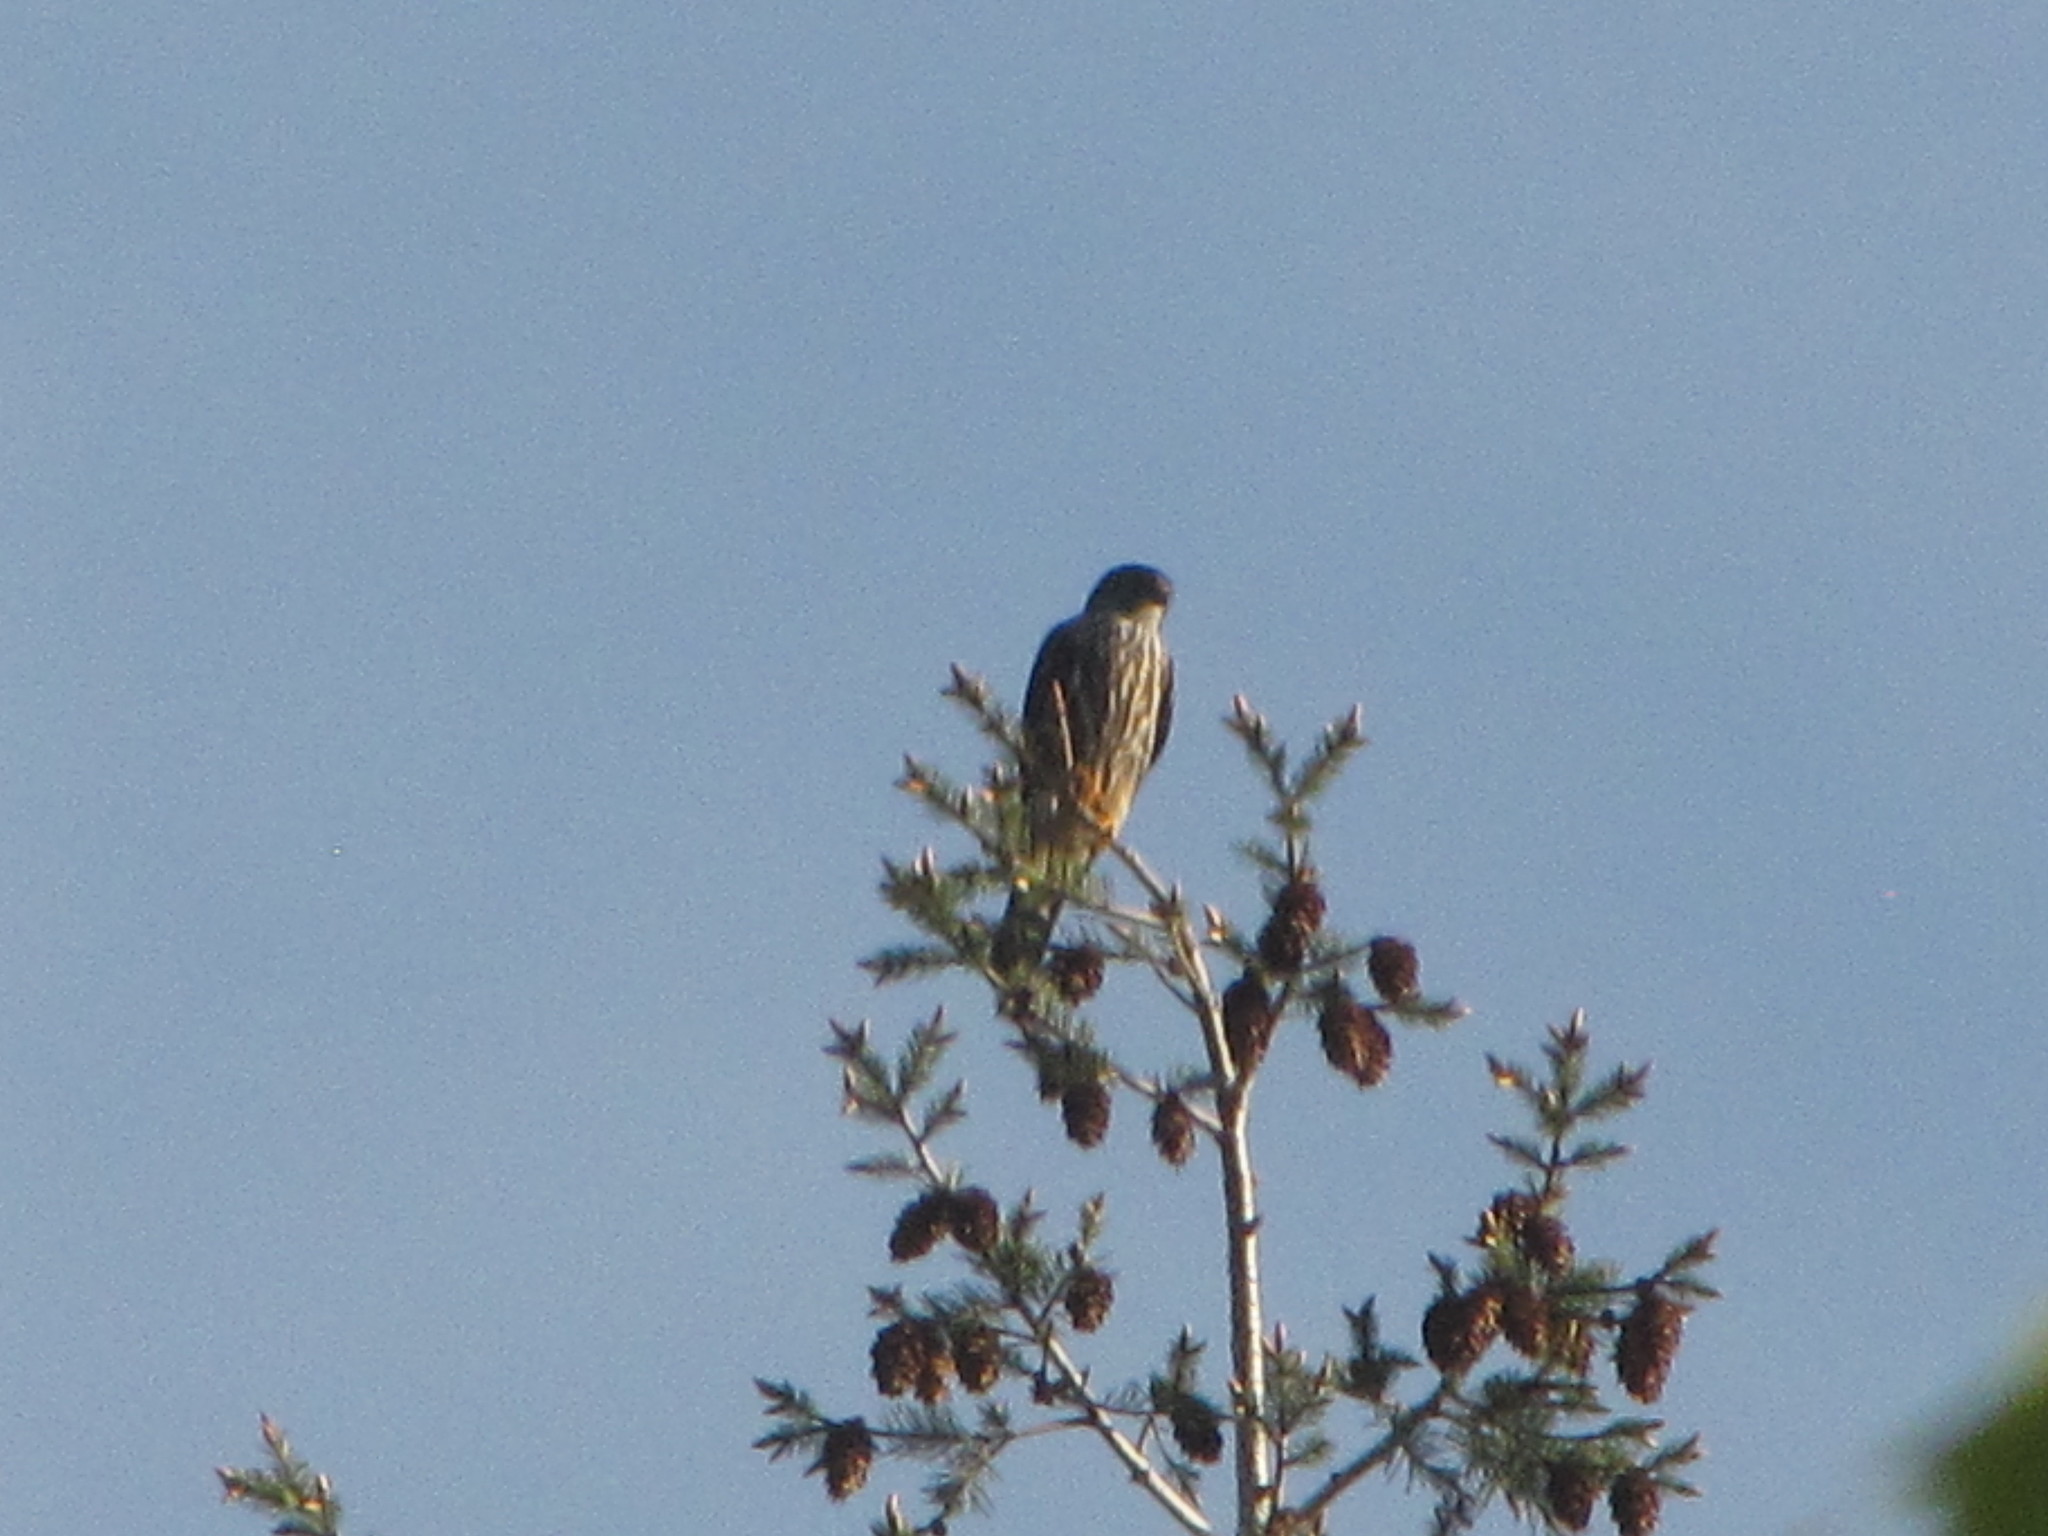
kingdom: Animalia
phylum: Chordata
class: Aves
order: Falconiformes
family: Falconidae
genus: Falco
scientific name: Falco columbarius
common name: Merlin
